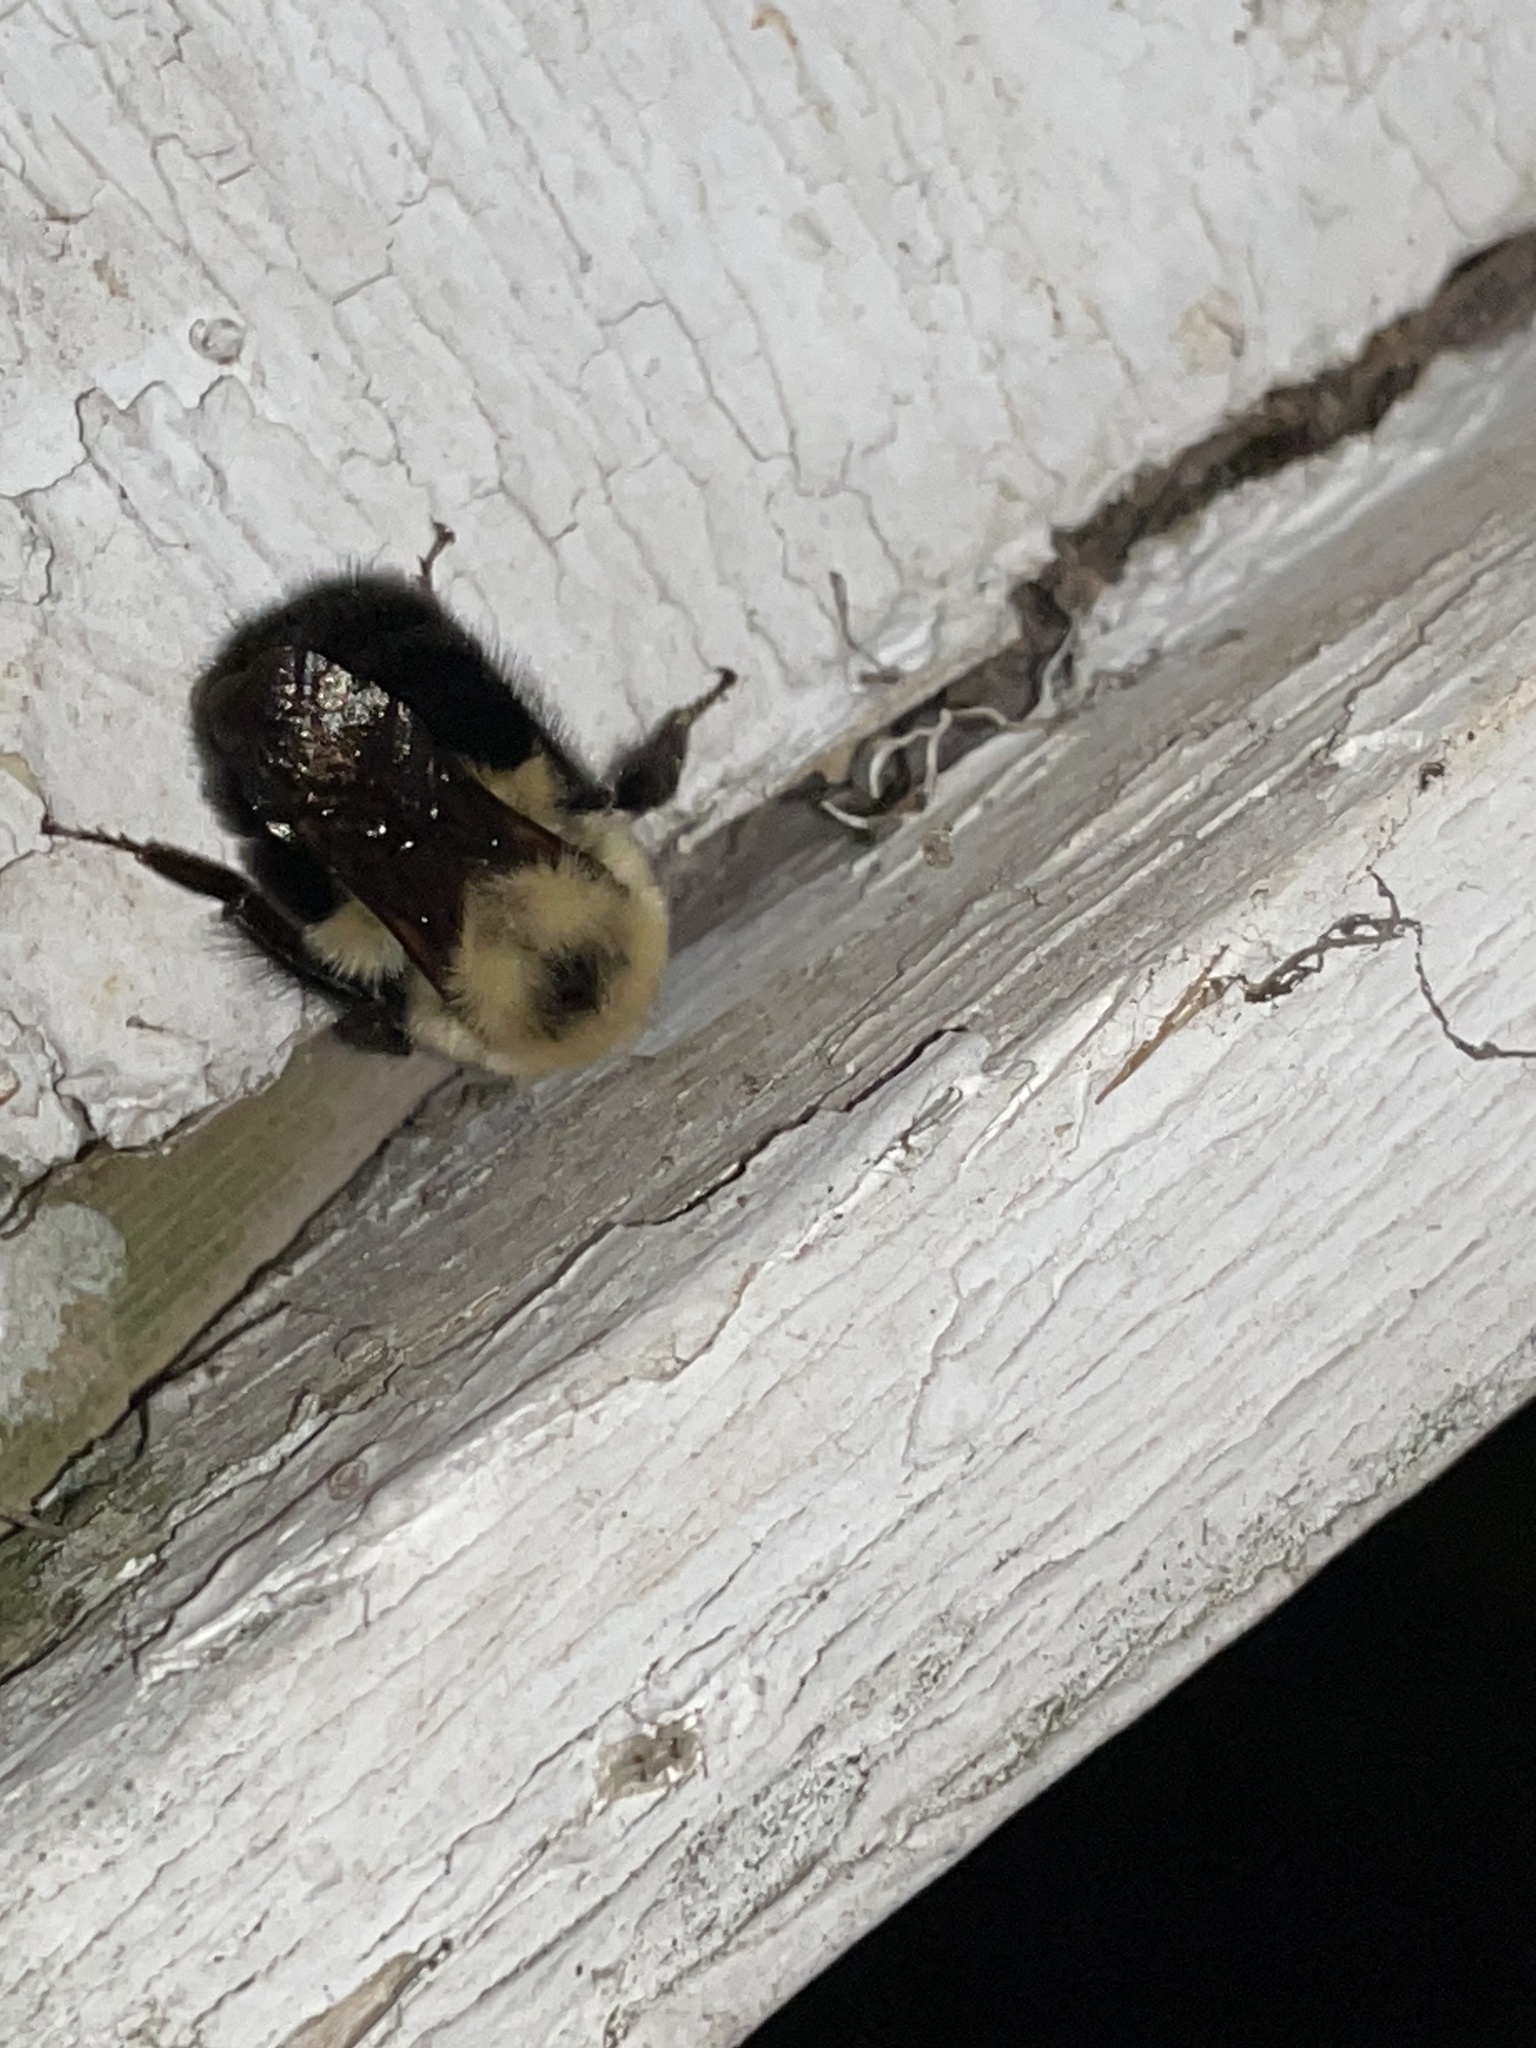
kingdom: Animalia
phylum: Arthropoda
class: Insecta
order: Hymenoptera
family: Apidae
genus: Bombus
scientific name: Bombus bimaculatus
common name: Two-spotted bumble bee
